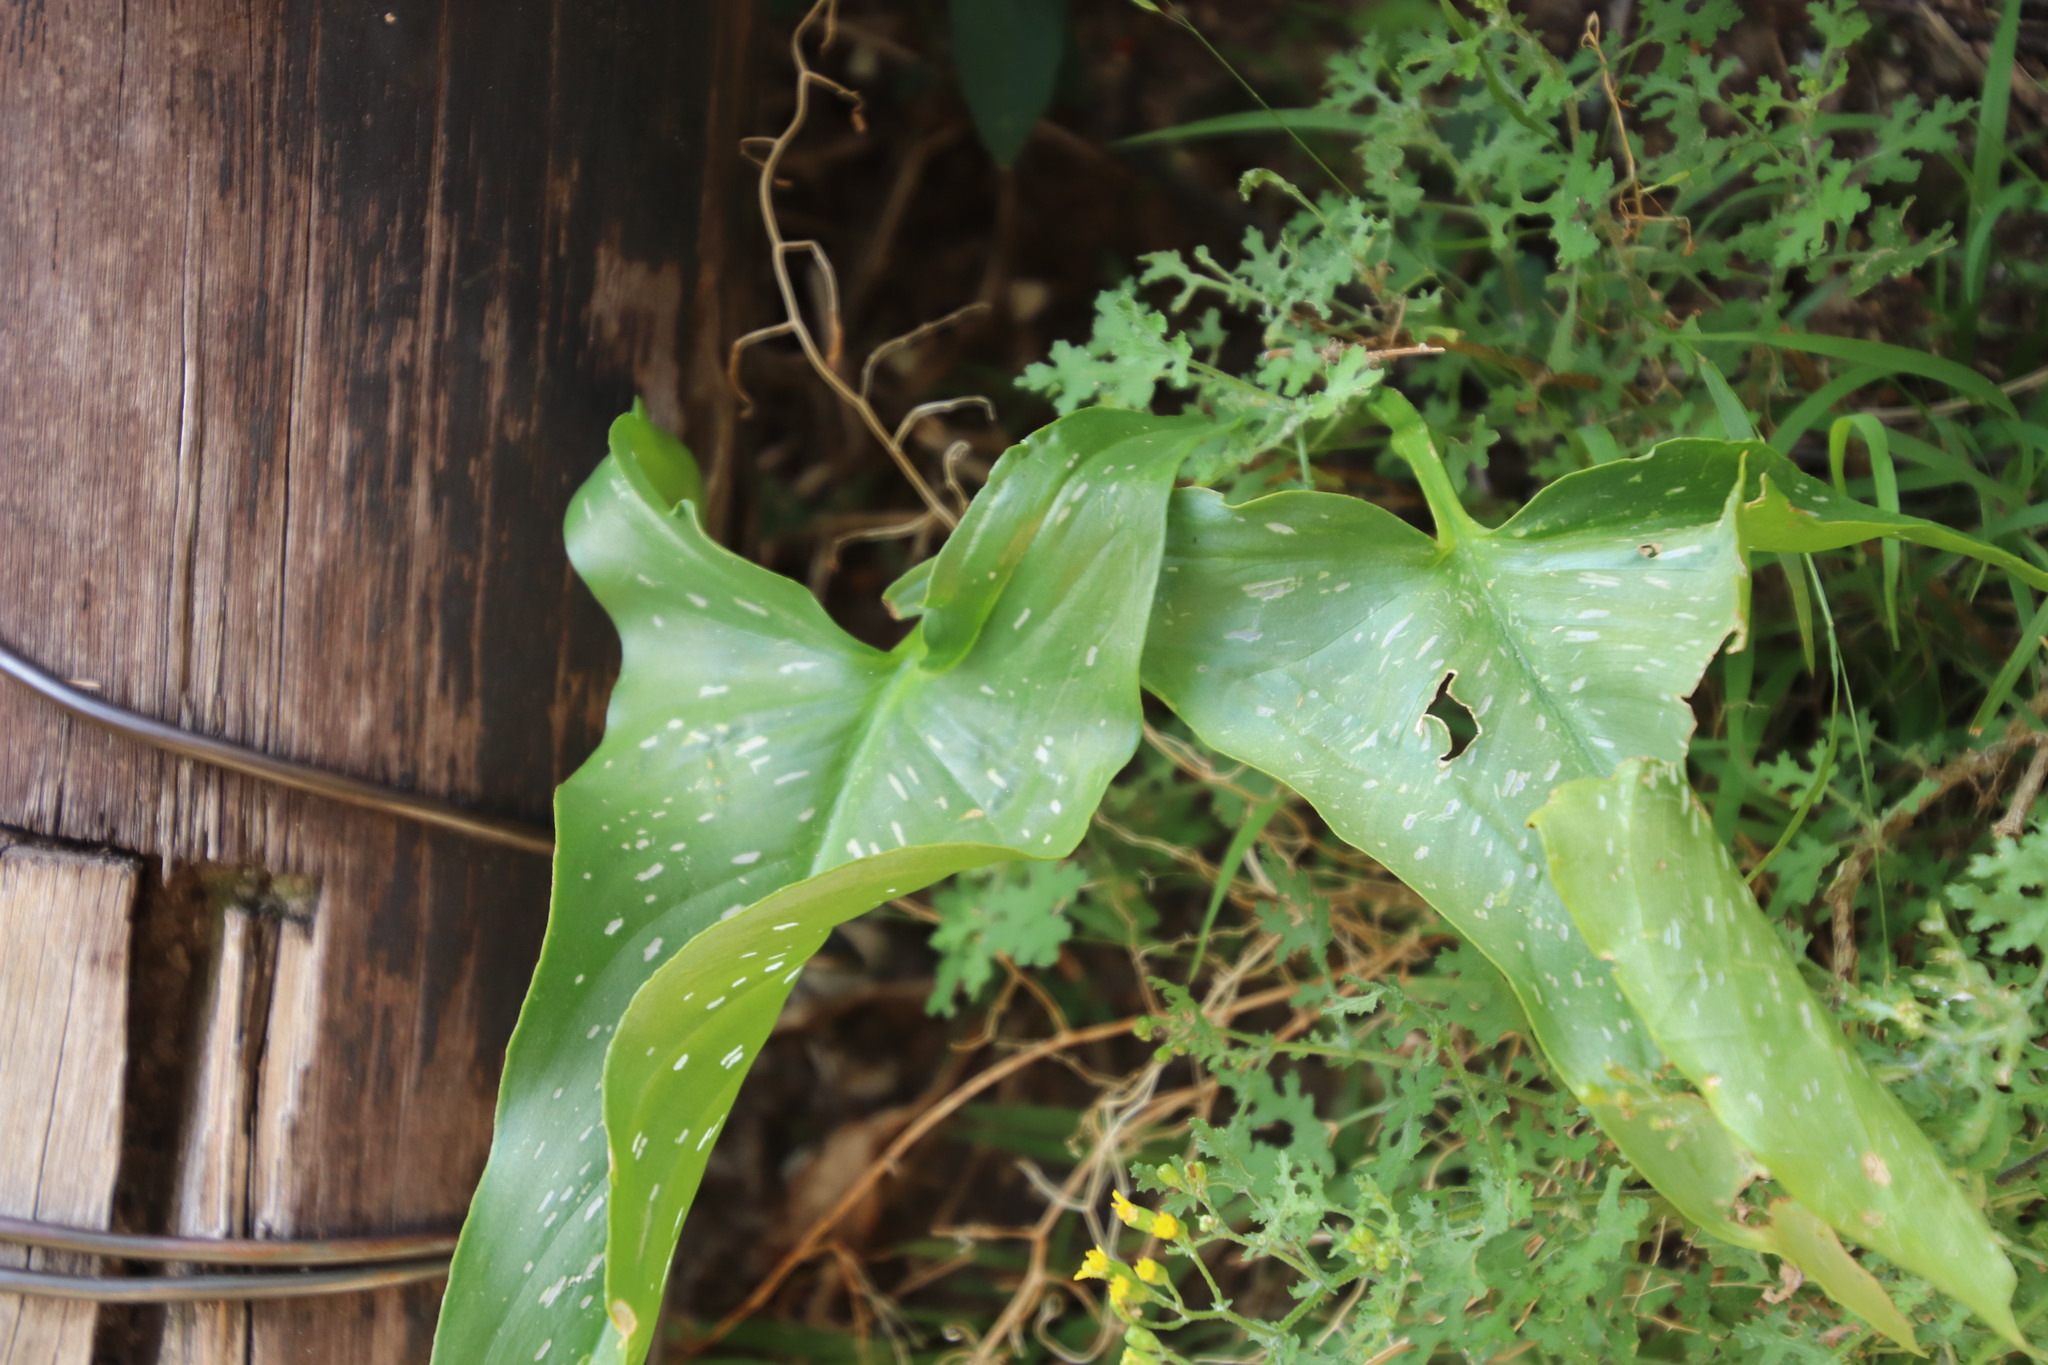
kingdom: Plantae
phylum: Tracheophyta
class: Liliopsida
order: Alismatales
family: Araceae
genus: Zantedeschia
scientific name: Zantedeschia albomaculata
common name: Spotted calla lily
